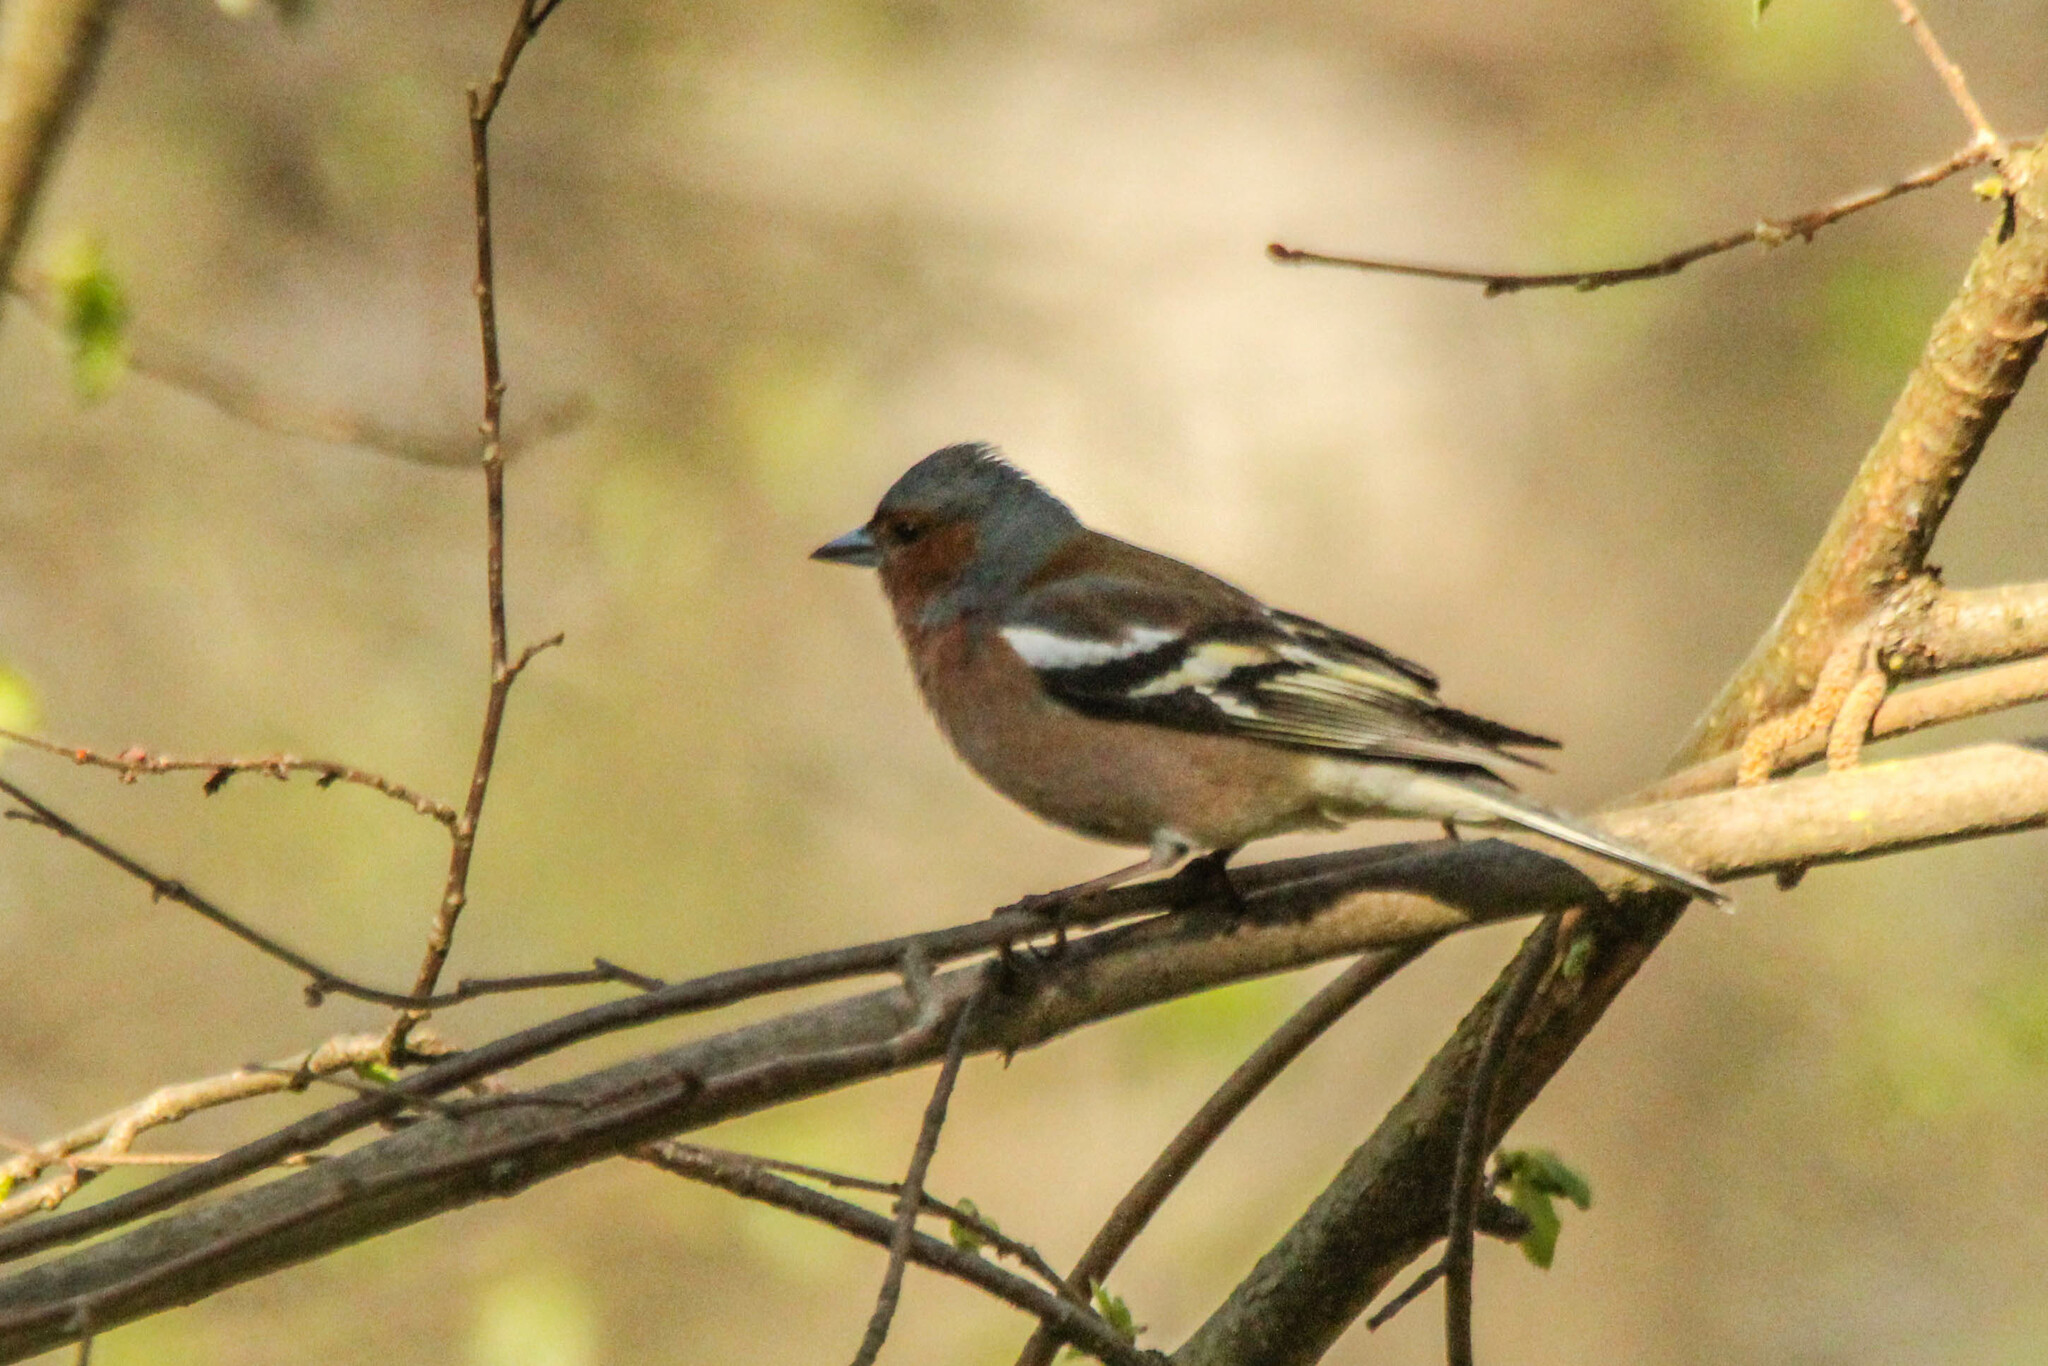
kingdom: Animalia
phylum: Chordata
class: Aves
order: Passeriformes
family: Fringillidae
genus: Fringilla
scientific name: Fringilla coelebs
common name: Common chaffinch
